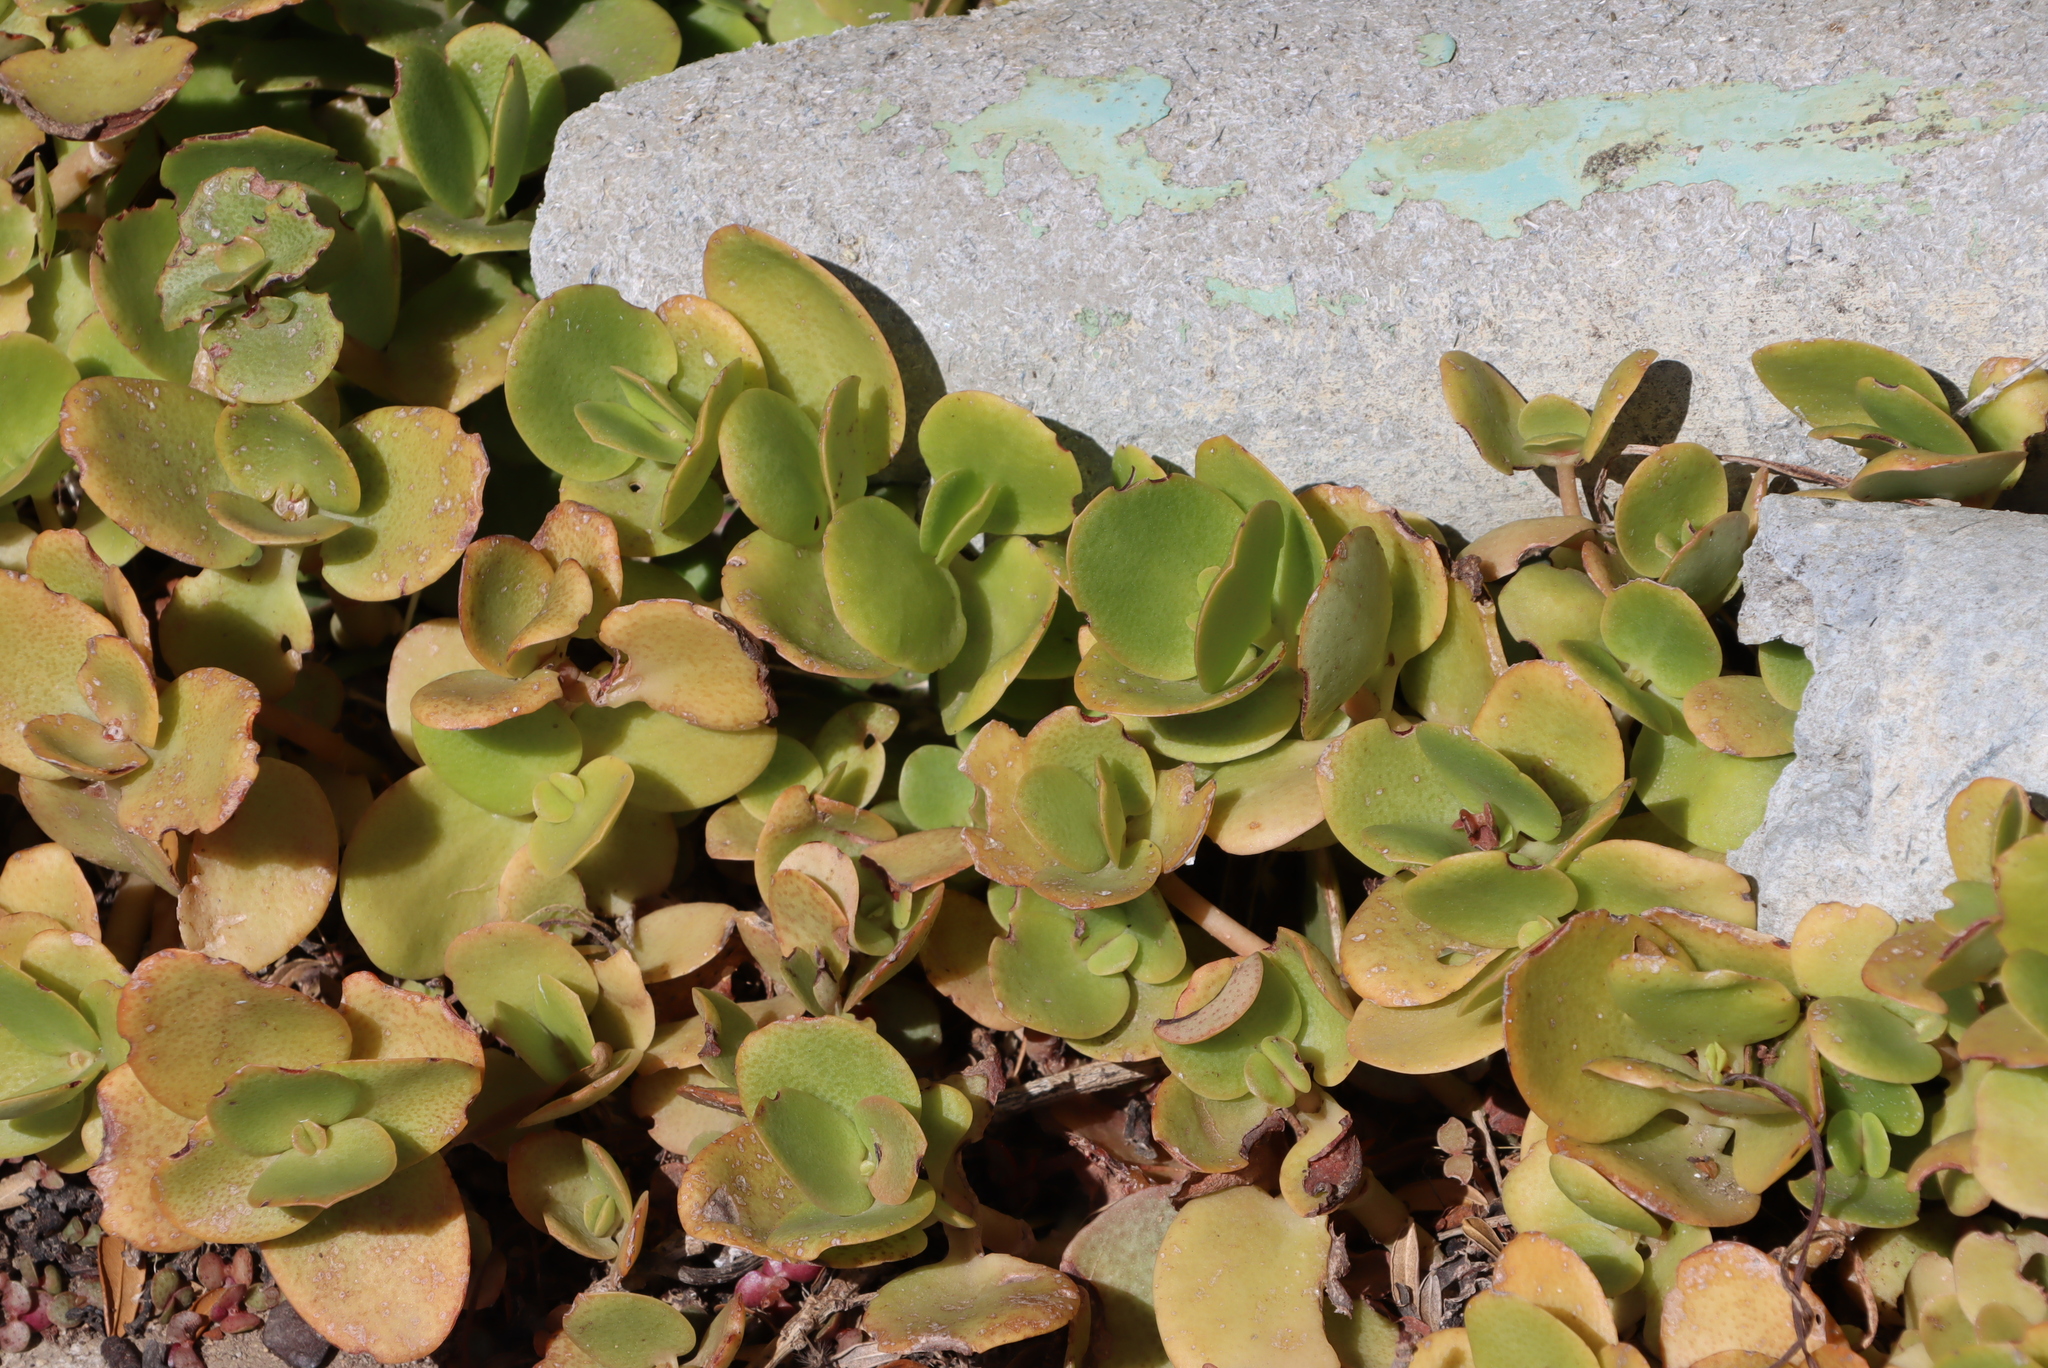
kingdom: Plantae
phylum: Tracheophyta
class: Magnoliopsida
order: Saxifragales
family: Crassulaceae
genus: Crassula
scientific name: Crassula multicava
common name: Cape province pygmyweed
